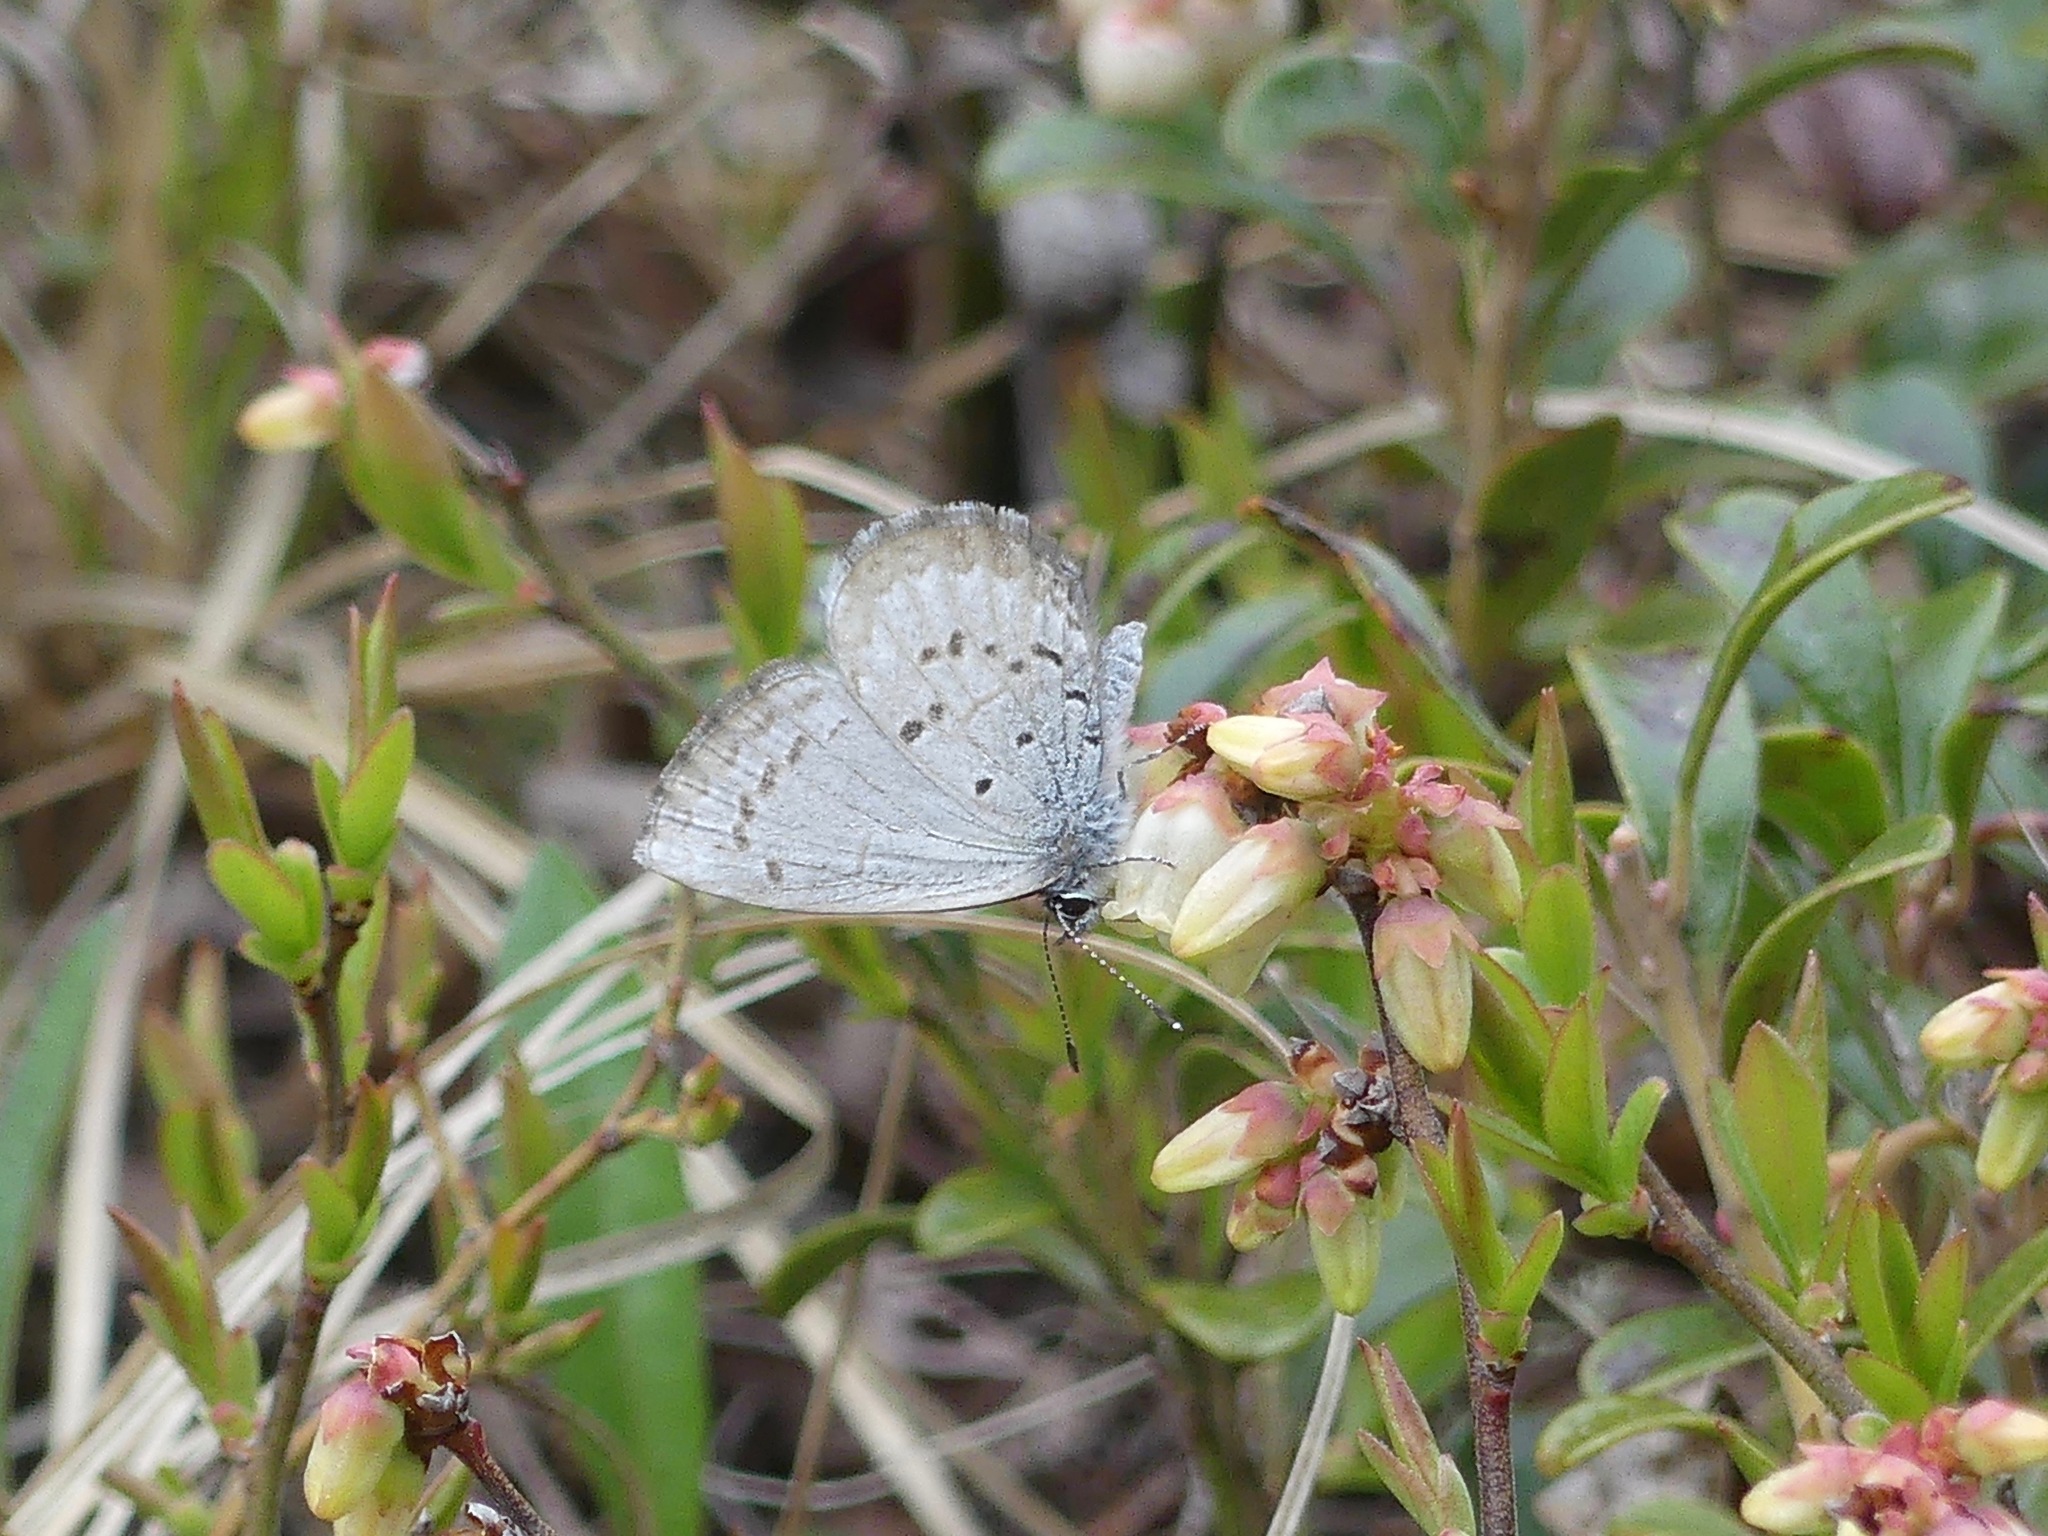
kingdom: Animalia
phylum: Arthropoda
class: Insecta
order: Lepidoptera
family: Lycaenidae
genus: Celastrina
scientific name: Celastrina ladon
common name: Spring azure
